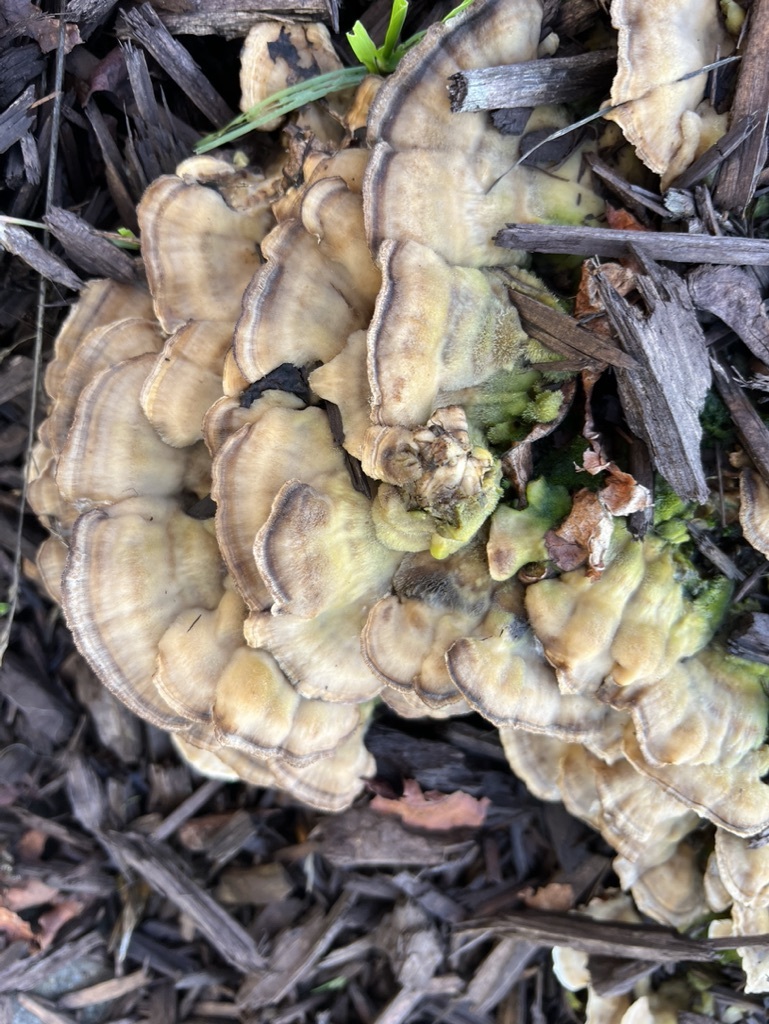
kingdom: Fungi
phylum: Basidiomycota
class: Agaricomycetes
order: Polyporales
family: Polyporaceae
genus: Lenzites
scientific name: Lenzites betulinus
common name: Birch mazegill
